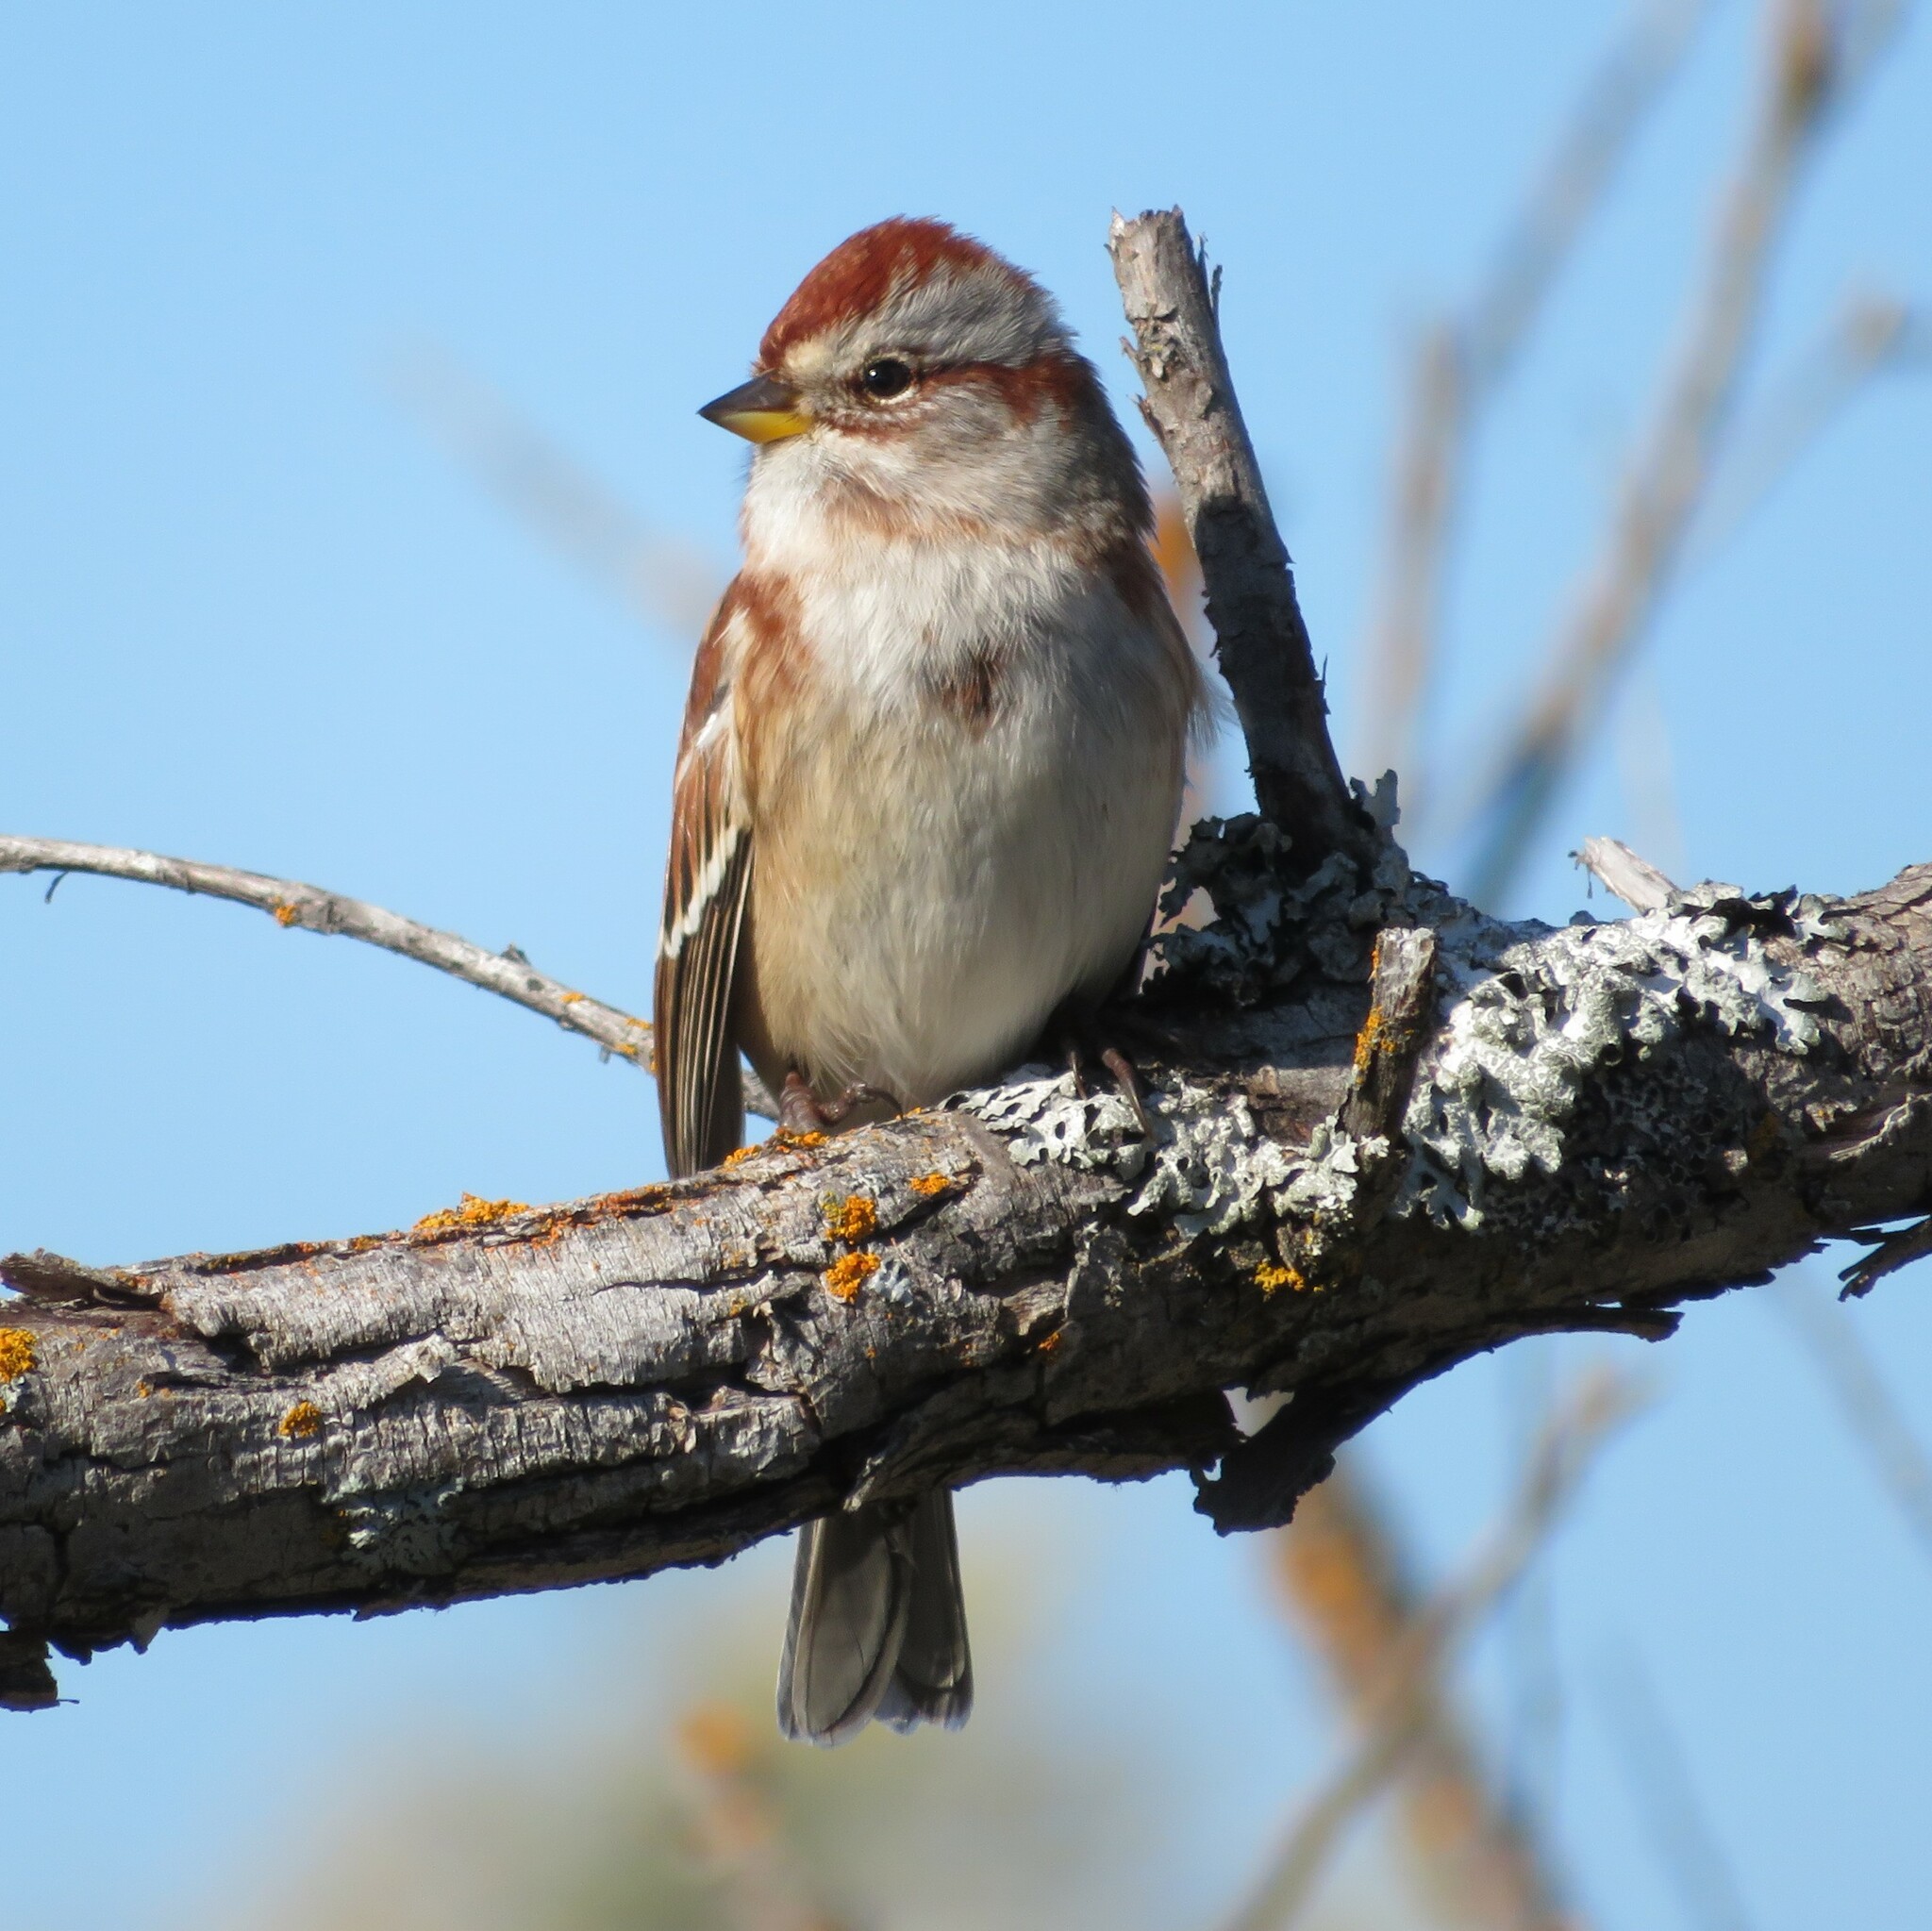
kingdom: Animalia
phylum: Chordata
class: Aves
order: Passeriformes
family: Passerellidae
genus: Spizelloides
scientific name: Spizelloides arborea
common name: American tree sparrow
